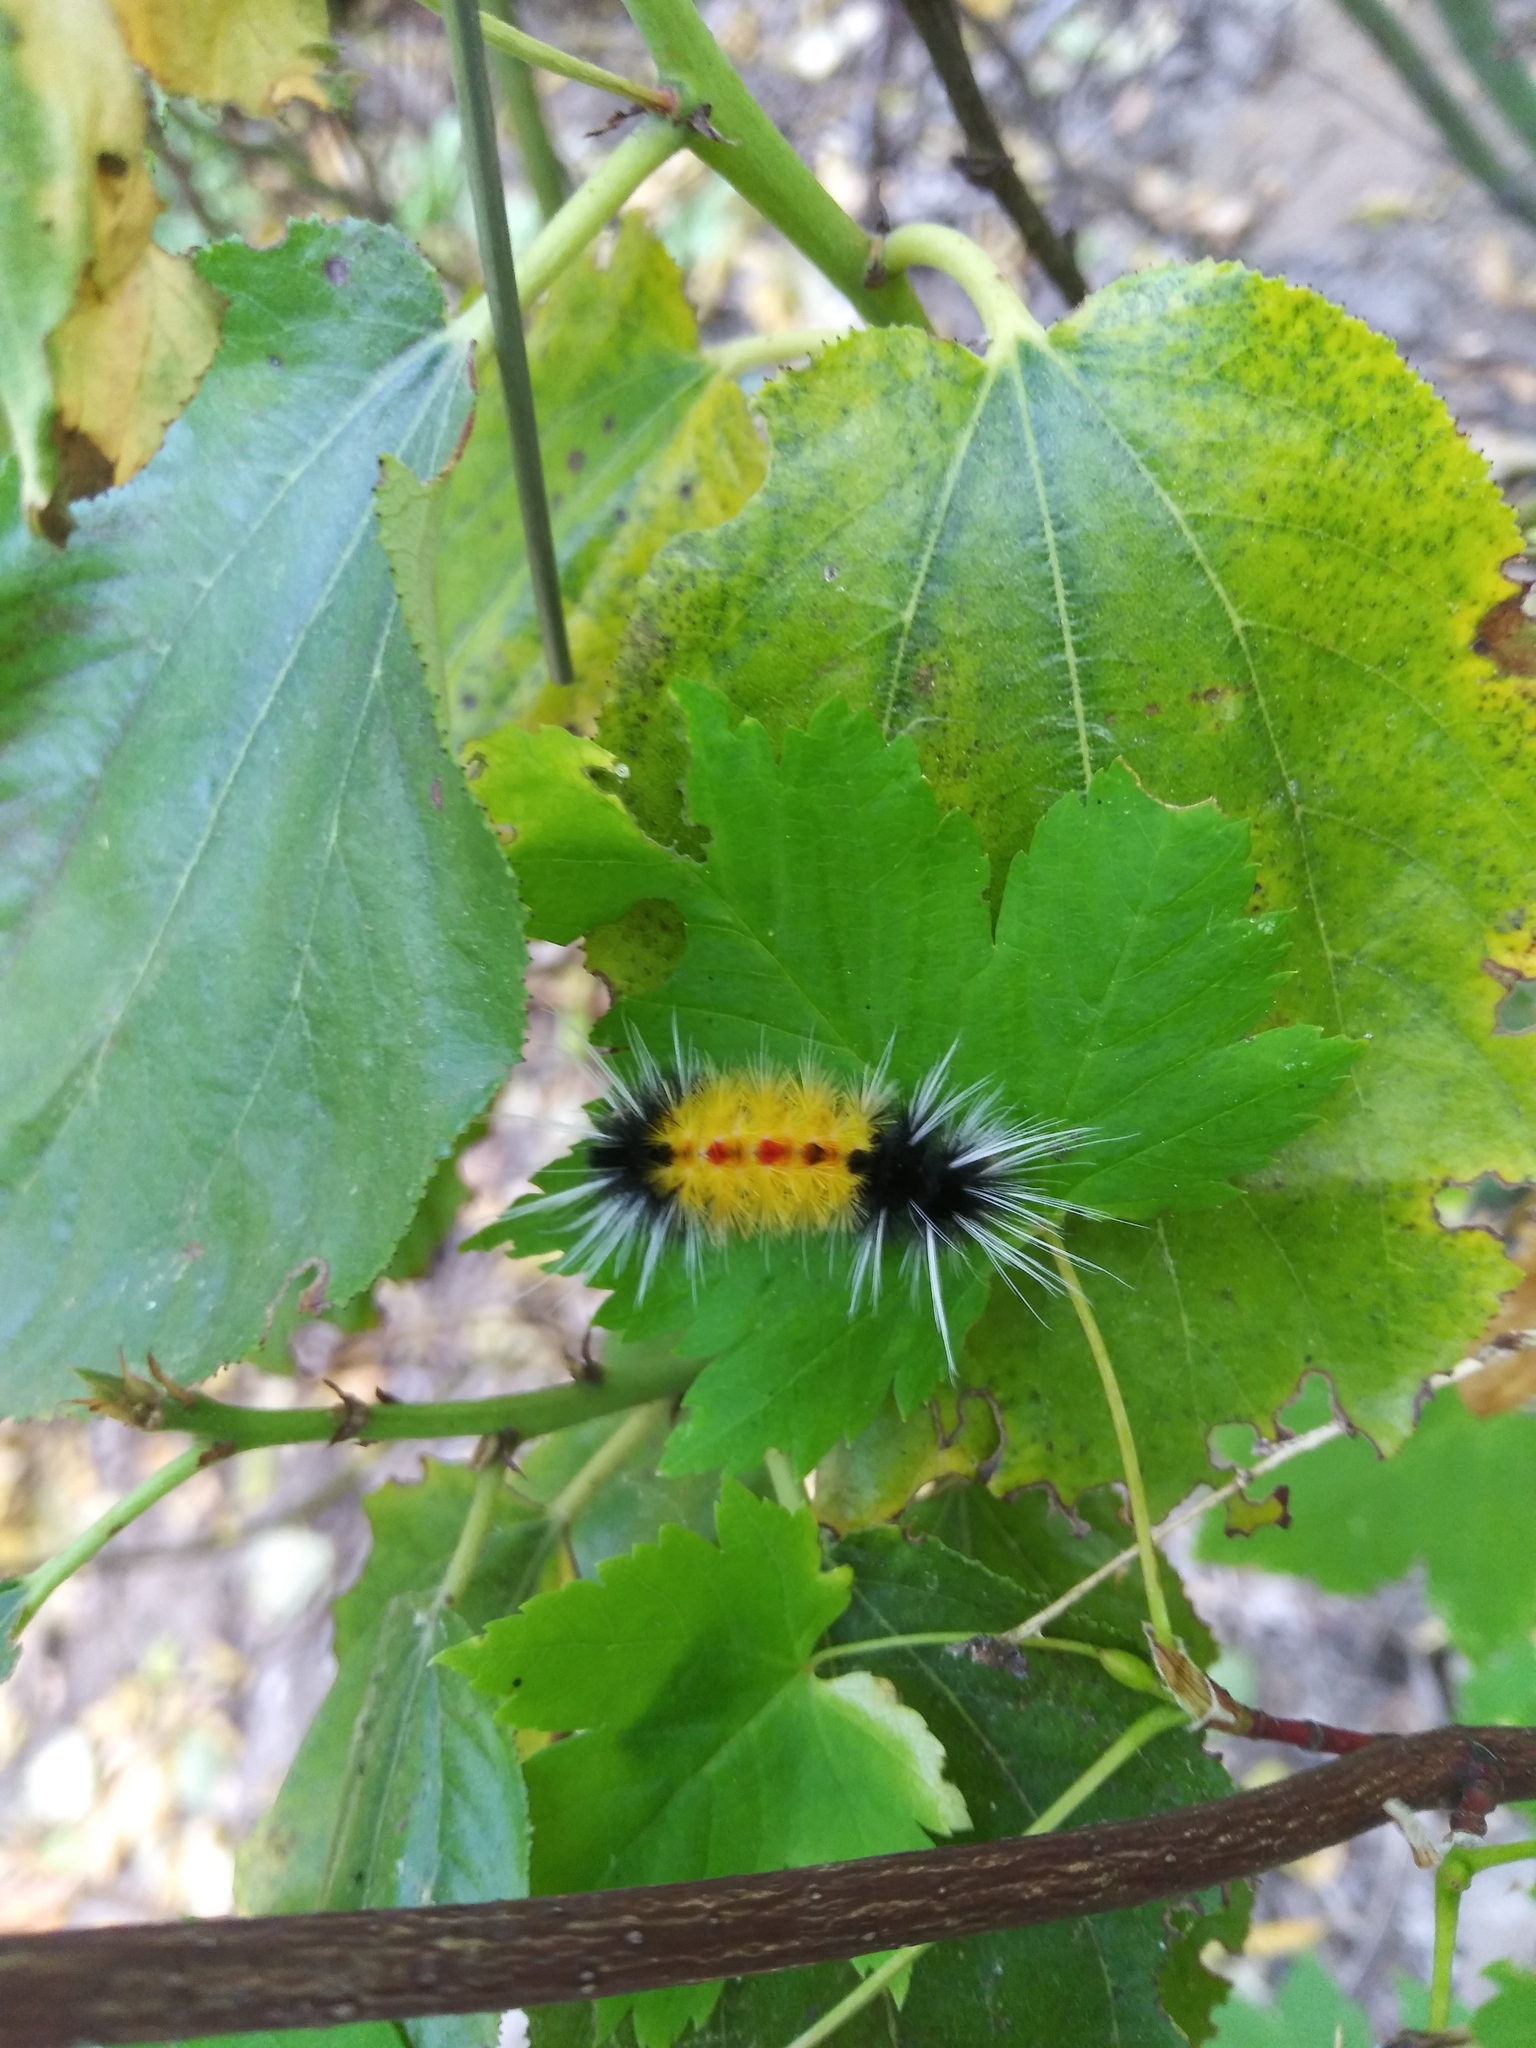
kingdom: Animalia
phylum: Arthropoda
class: Insecta
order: Lepidoptera
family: Erebidae
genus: Lophocampa
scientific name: Lophocampa maculata
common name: Spotted tussock moth
